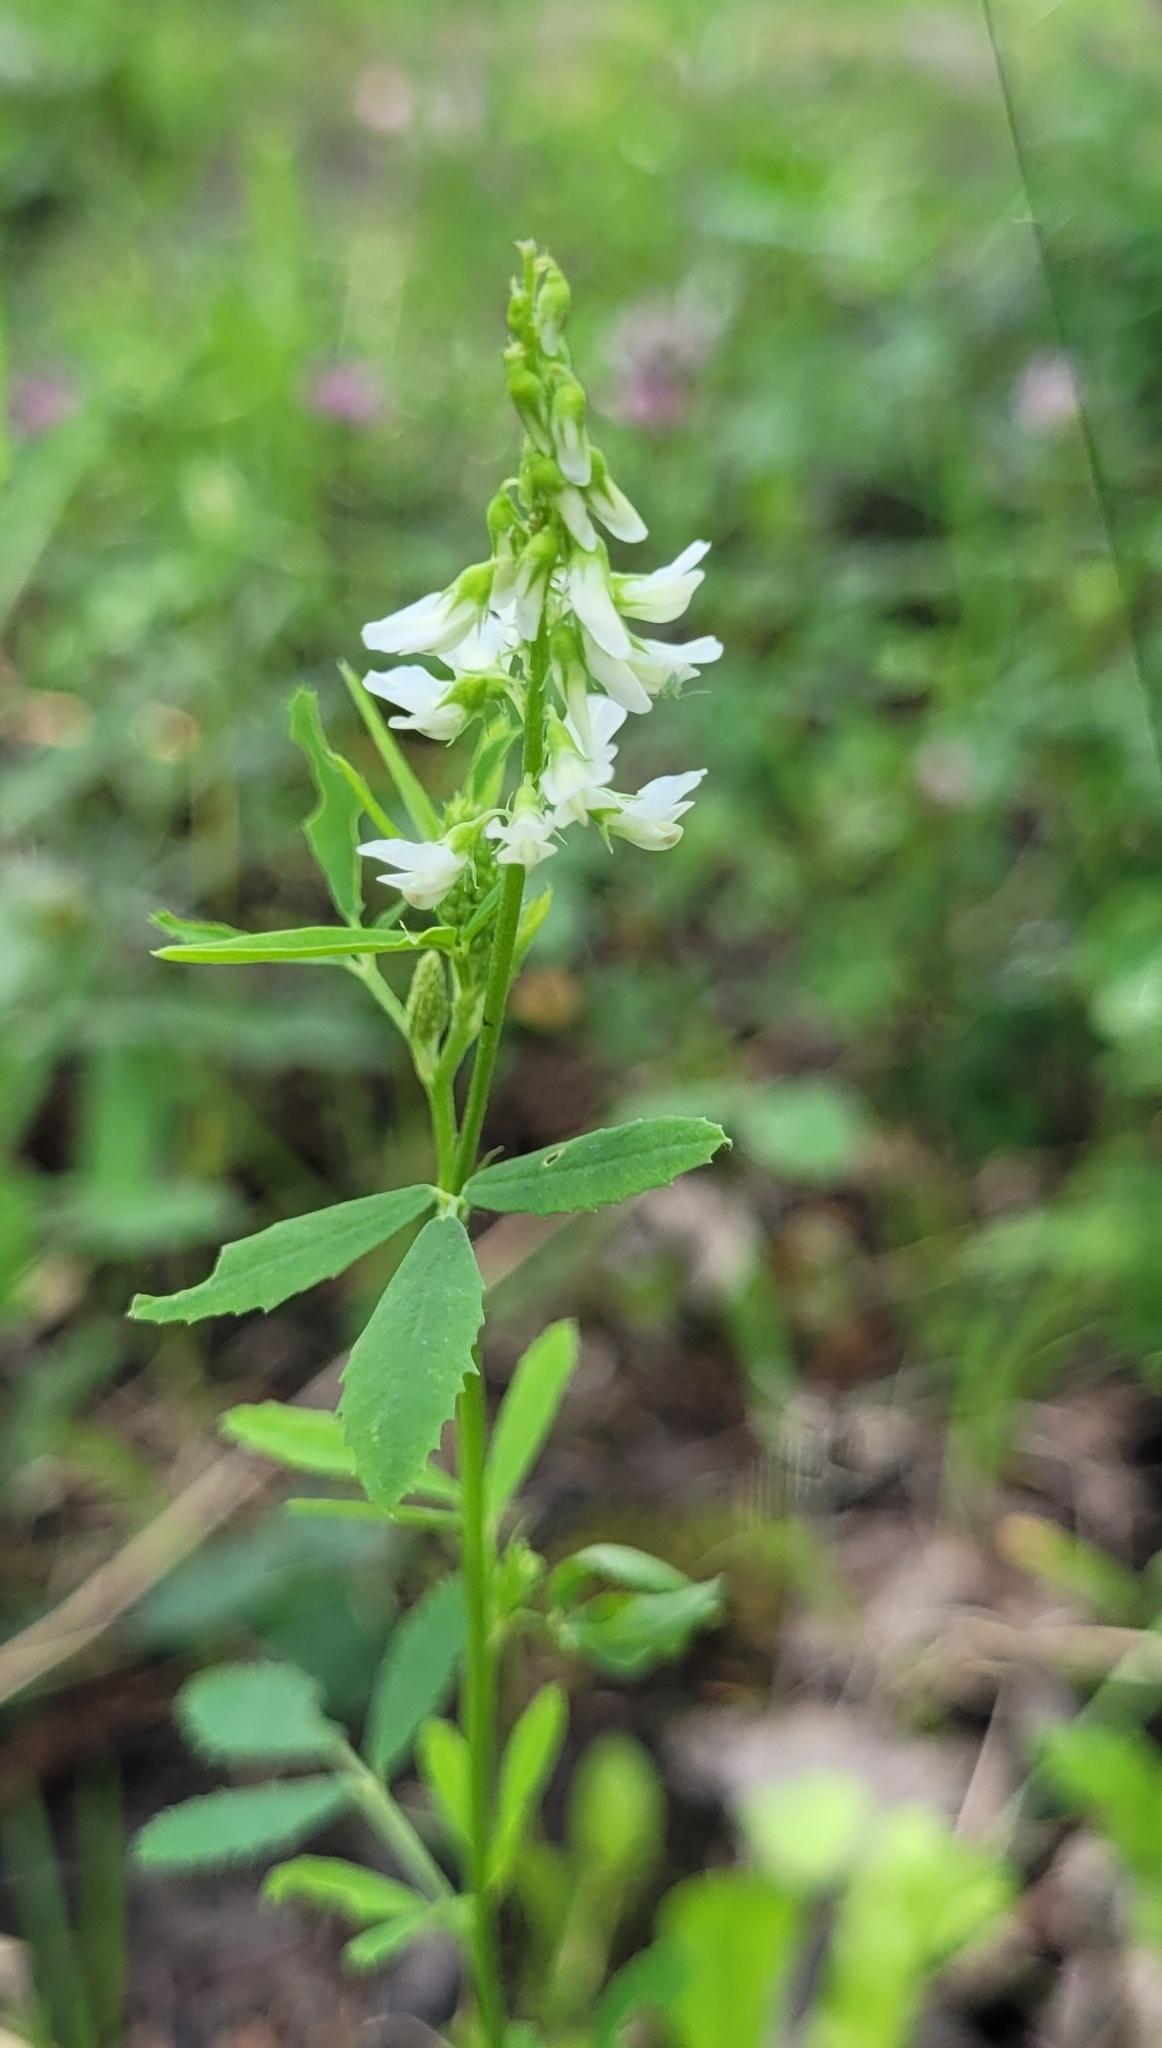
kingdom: Plantae
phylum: Tracheophyta
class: Magnoliopsida
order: Fabales
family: Fabaceae
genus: Melilotus
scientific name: Melilotus albus
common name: White melilot
